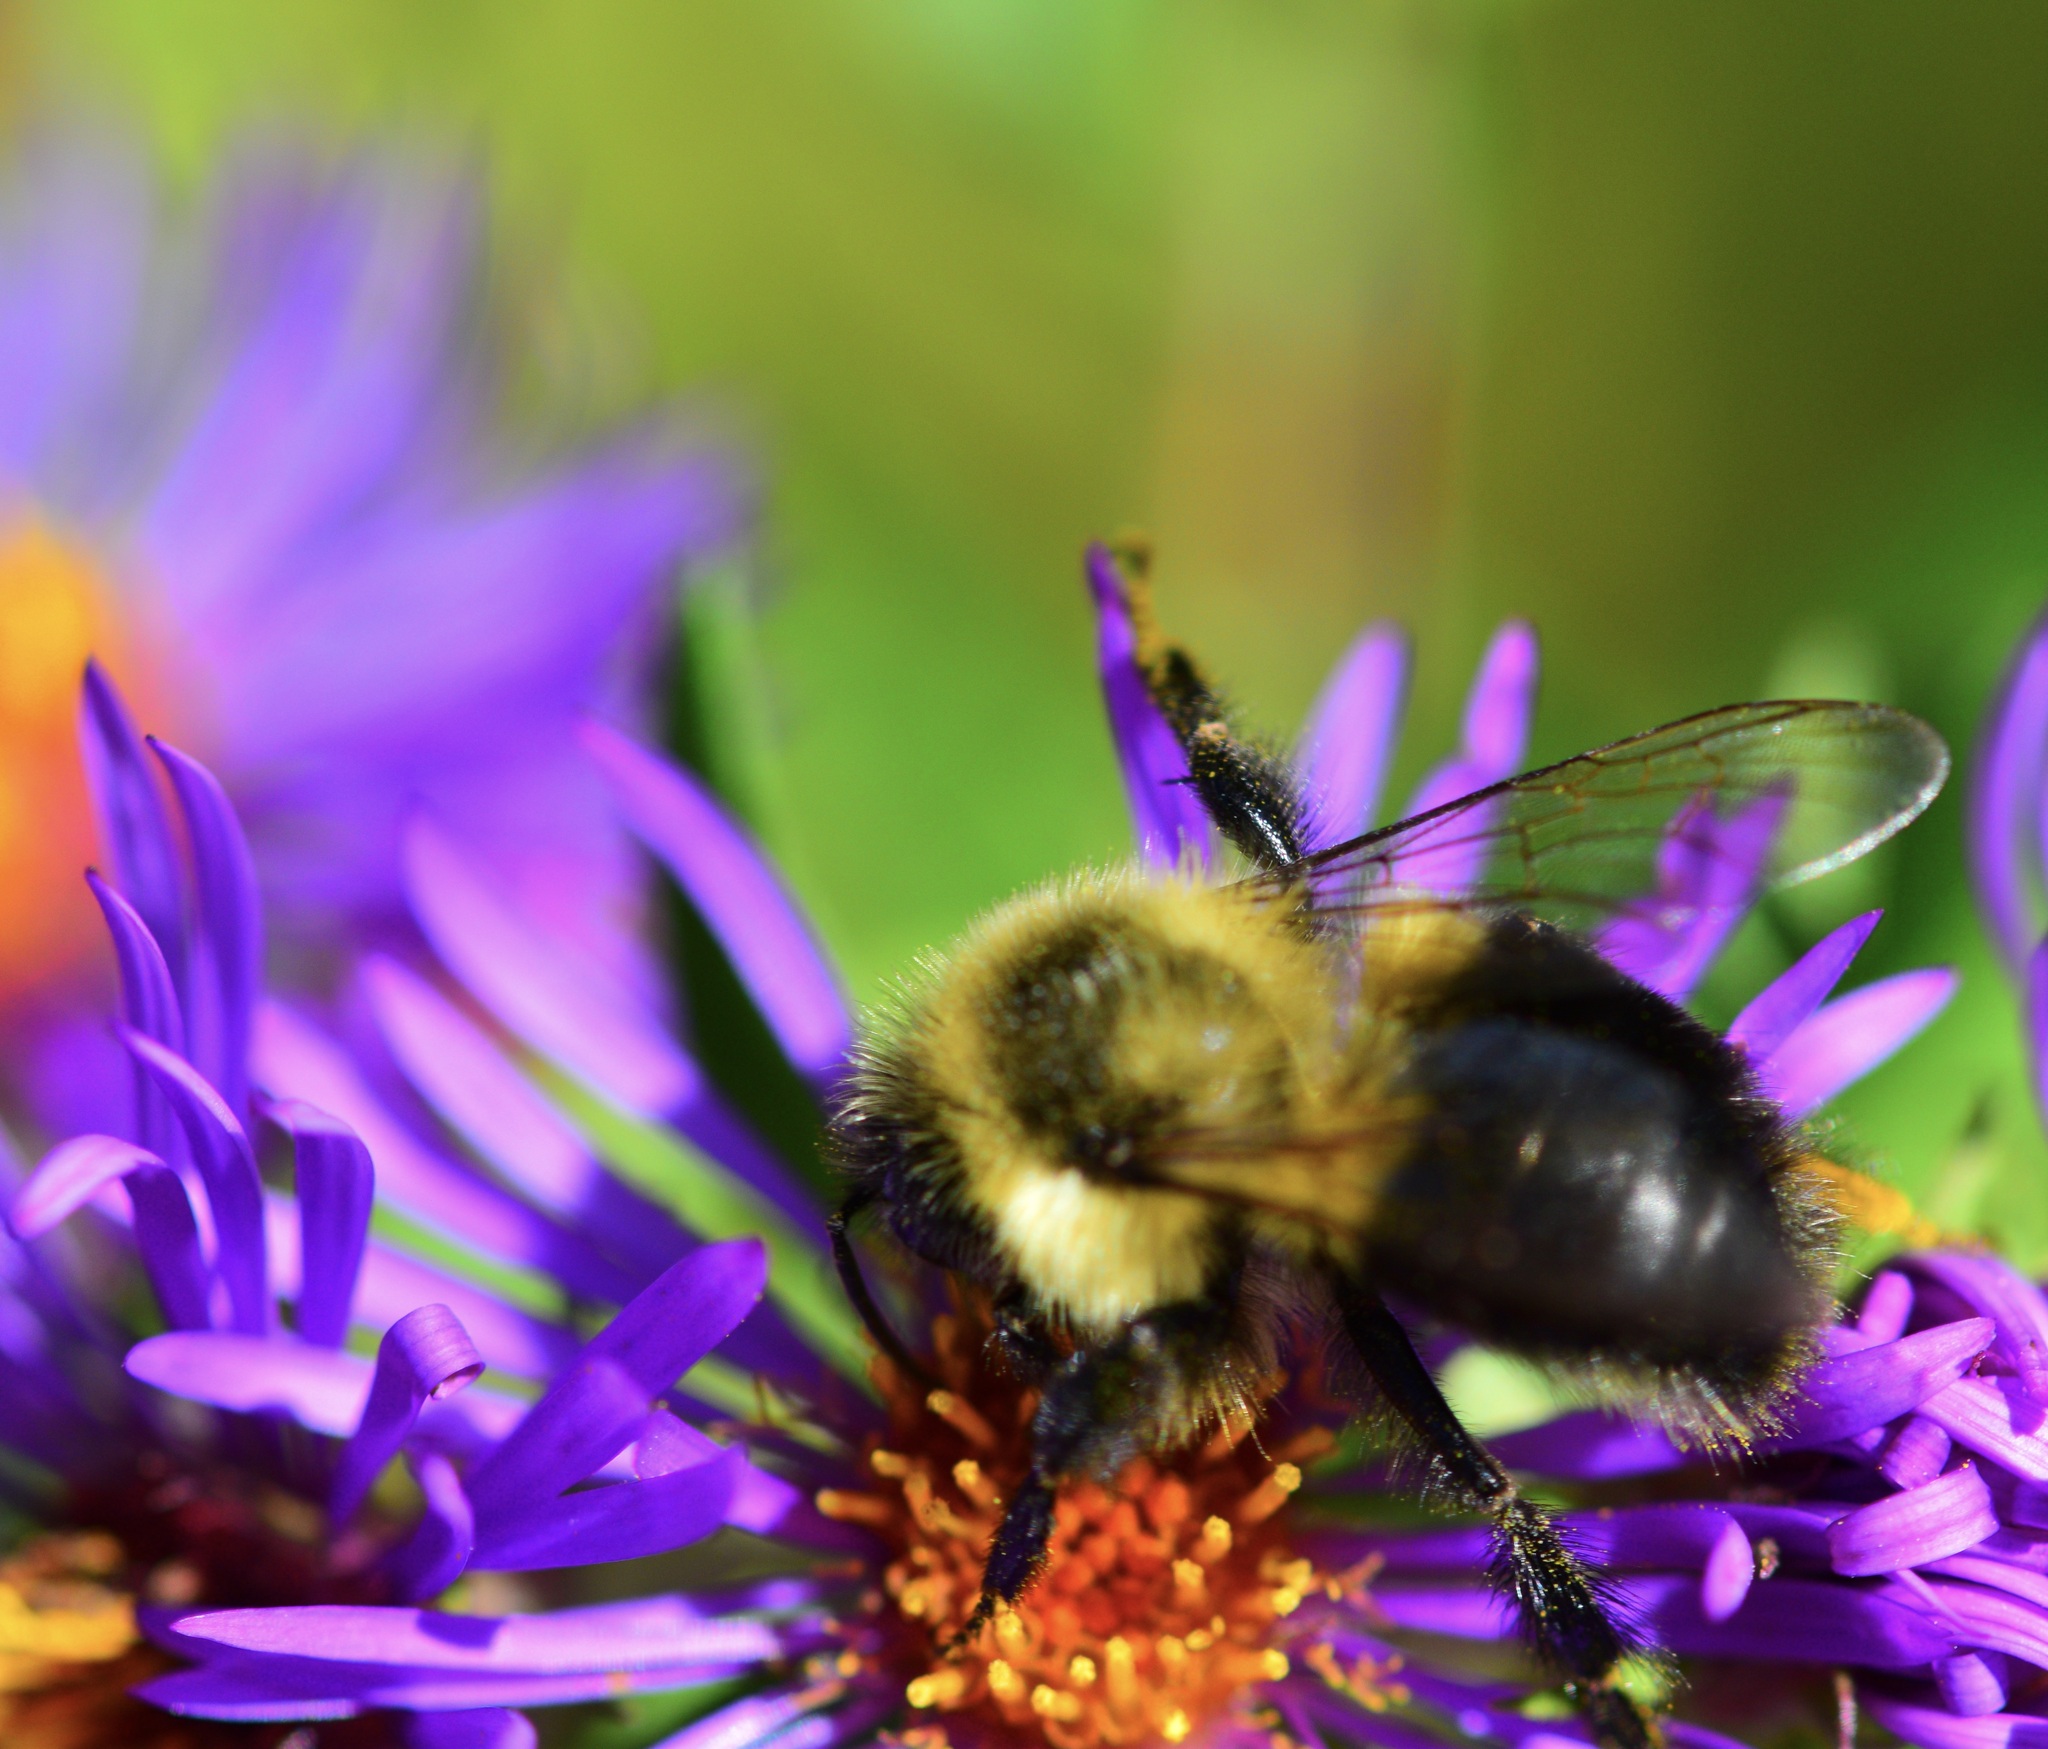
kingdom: Animalia
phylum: Arthropoda
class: Insecta
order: Hymenoptera
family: Apidae
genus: Bombus
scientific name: Bombus impatiens
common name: Common eastern bumble bee
